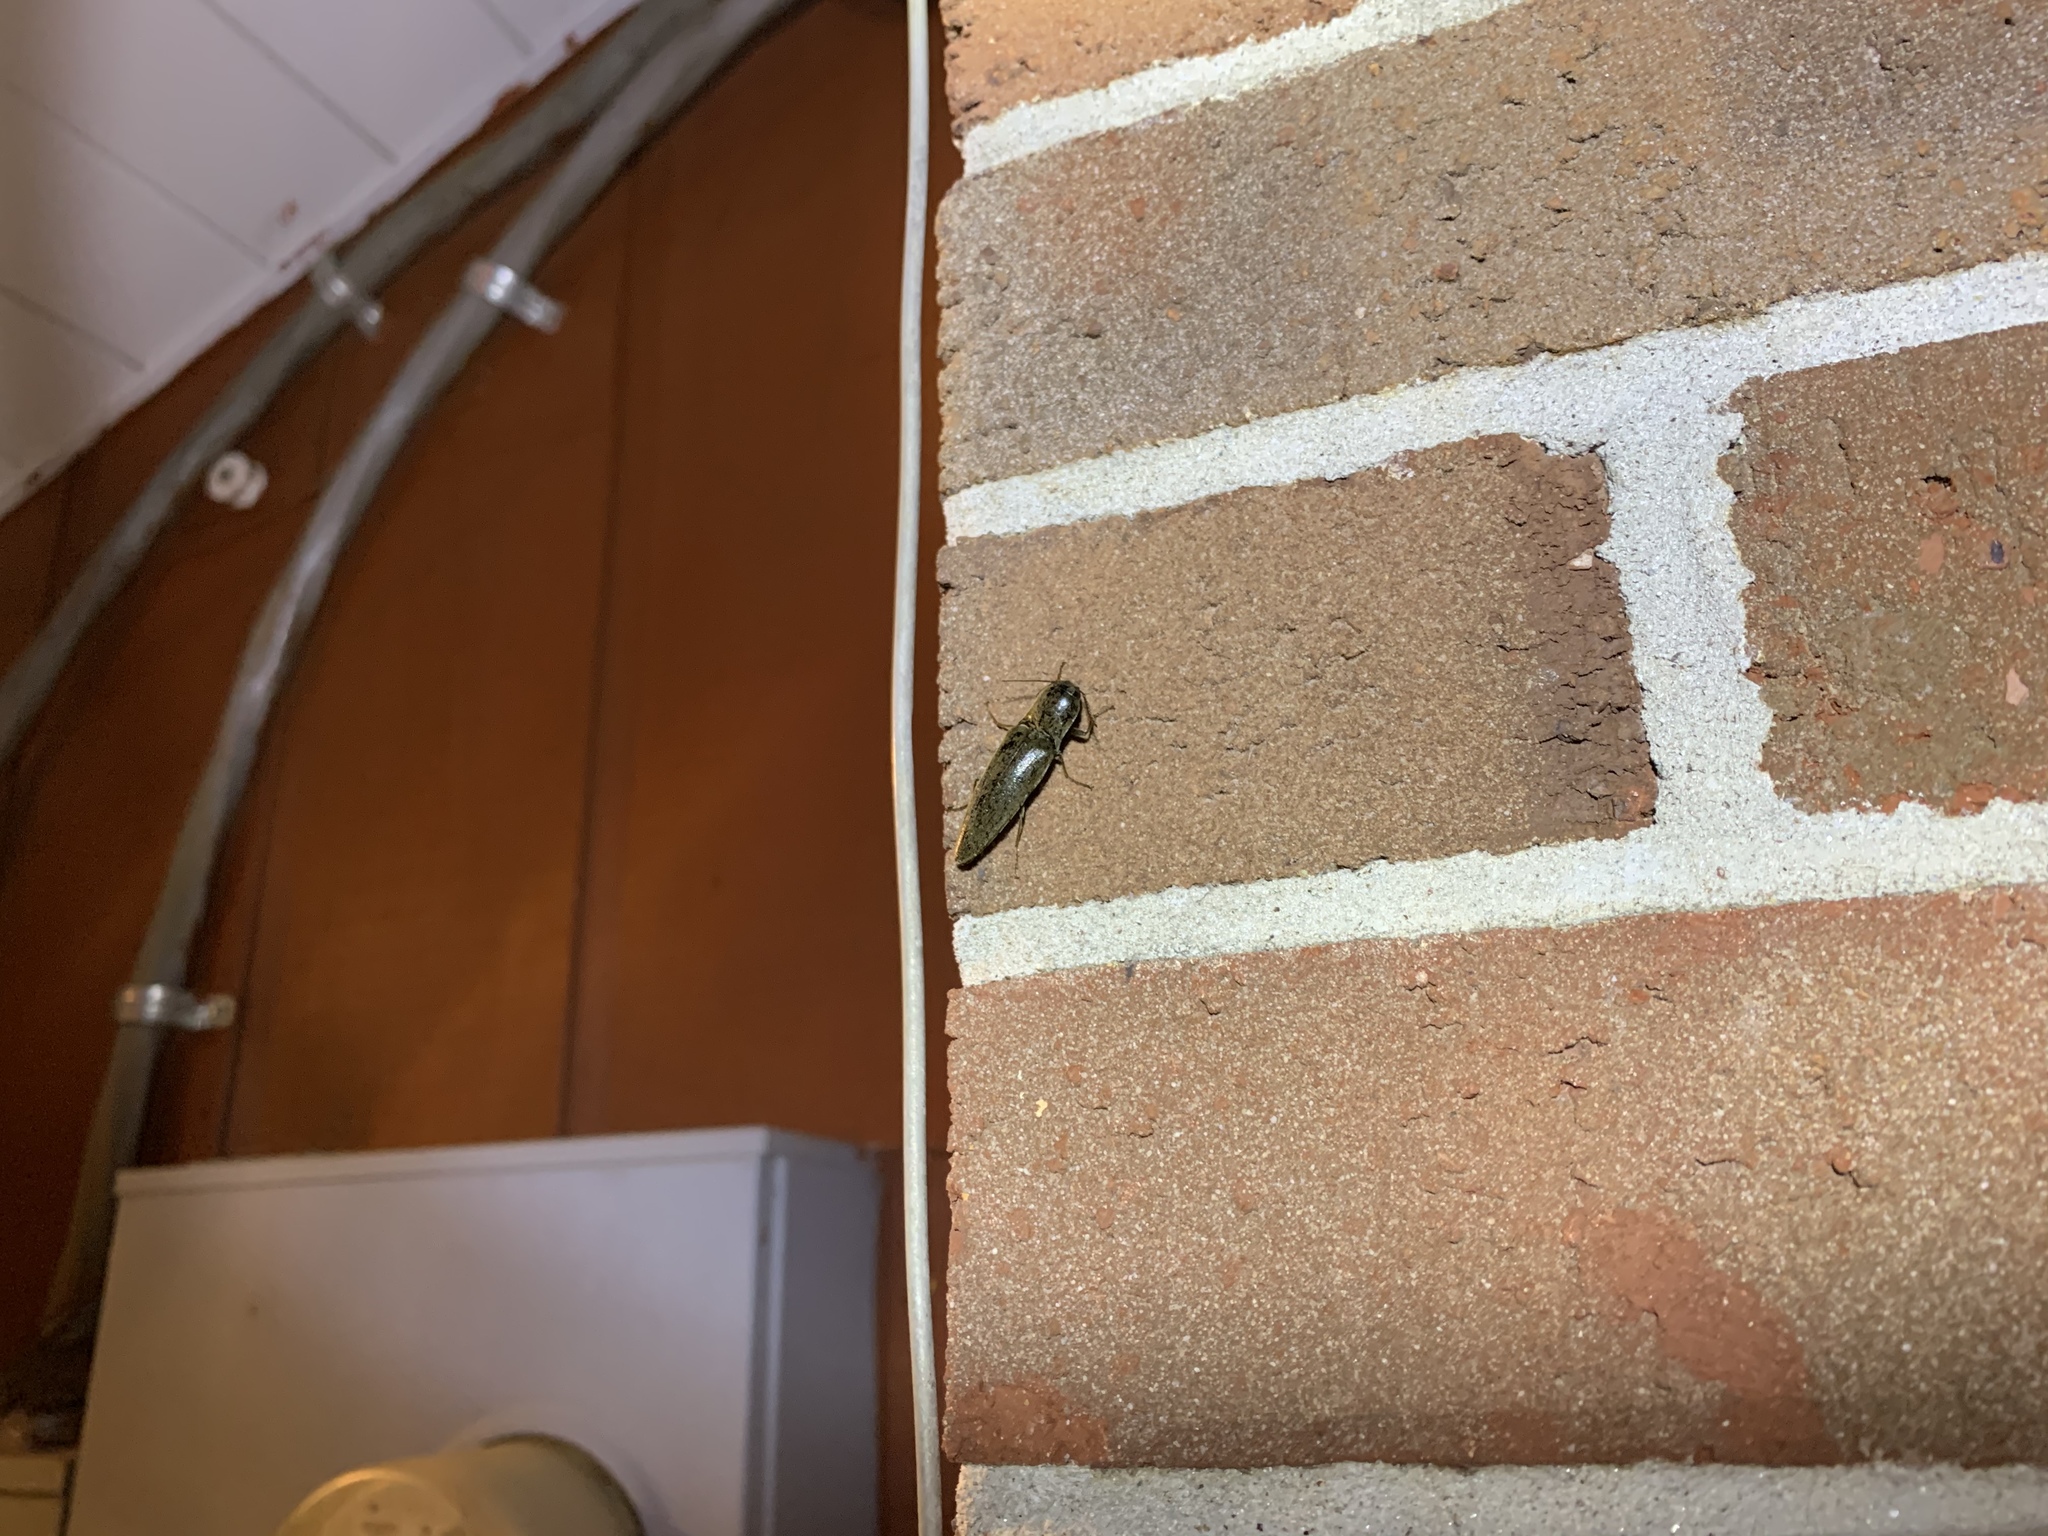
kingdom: Animalia
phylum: Arthropoda
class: Insecta
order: Coleoptera
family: Elateridae
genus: Orthostethus
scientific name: Orthostethus infuscatus
